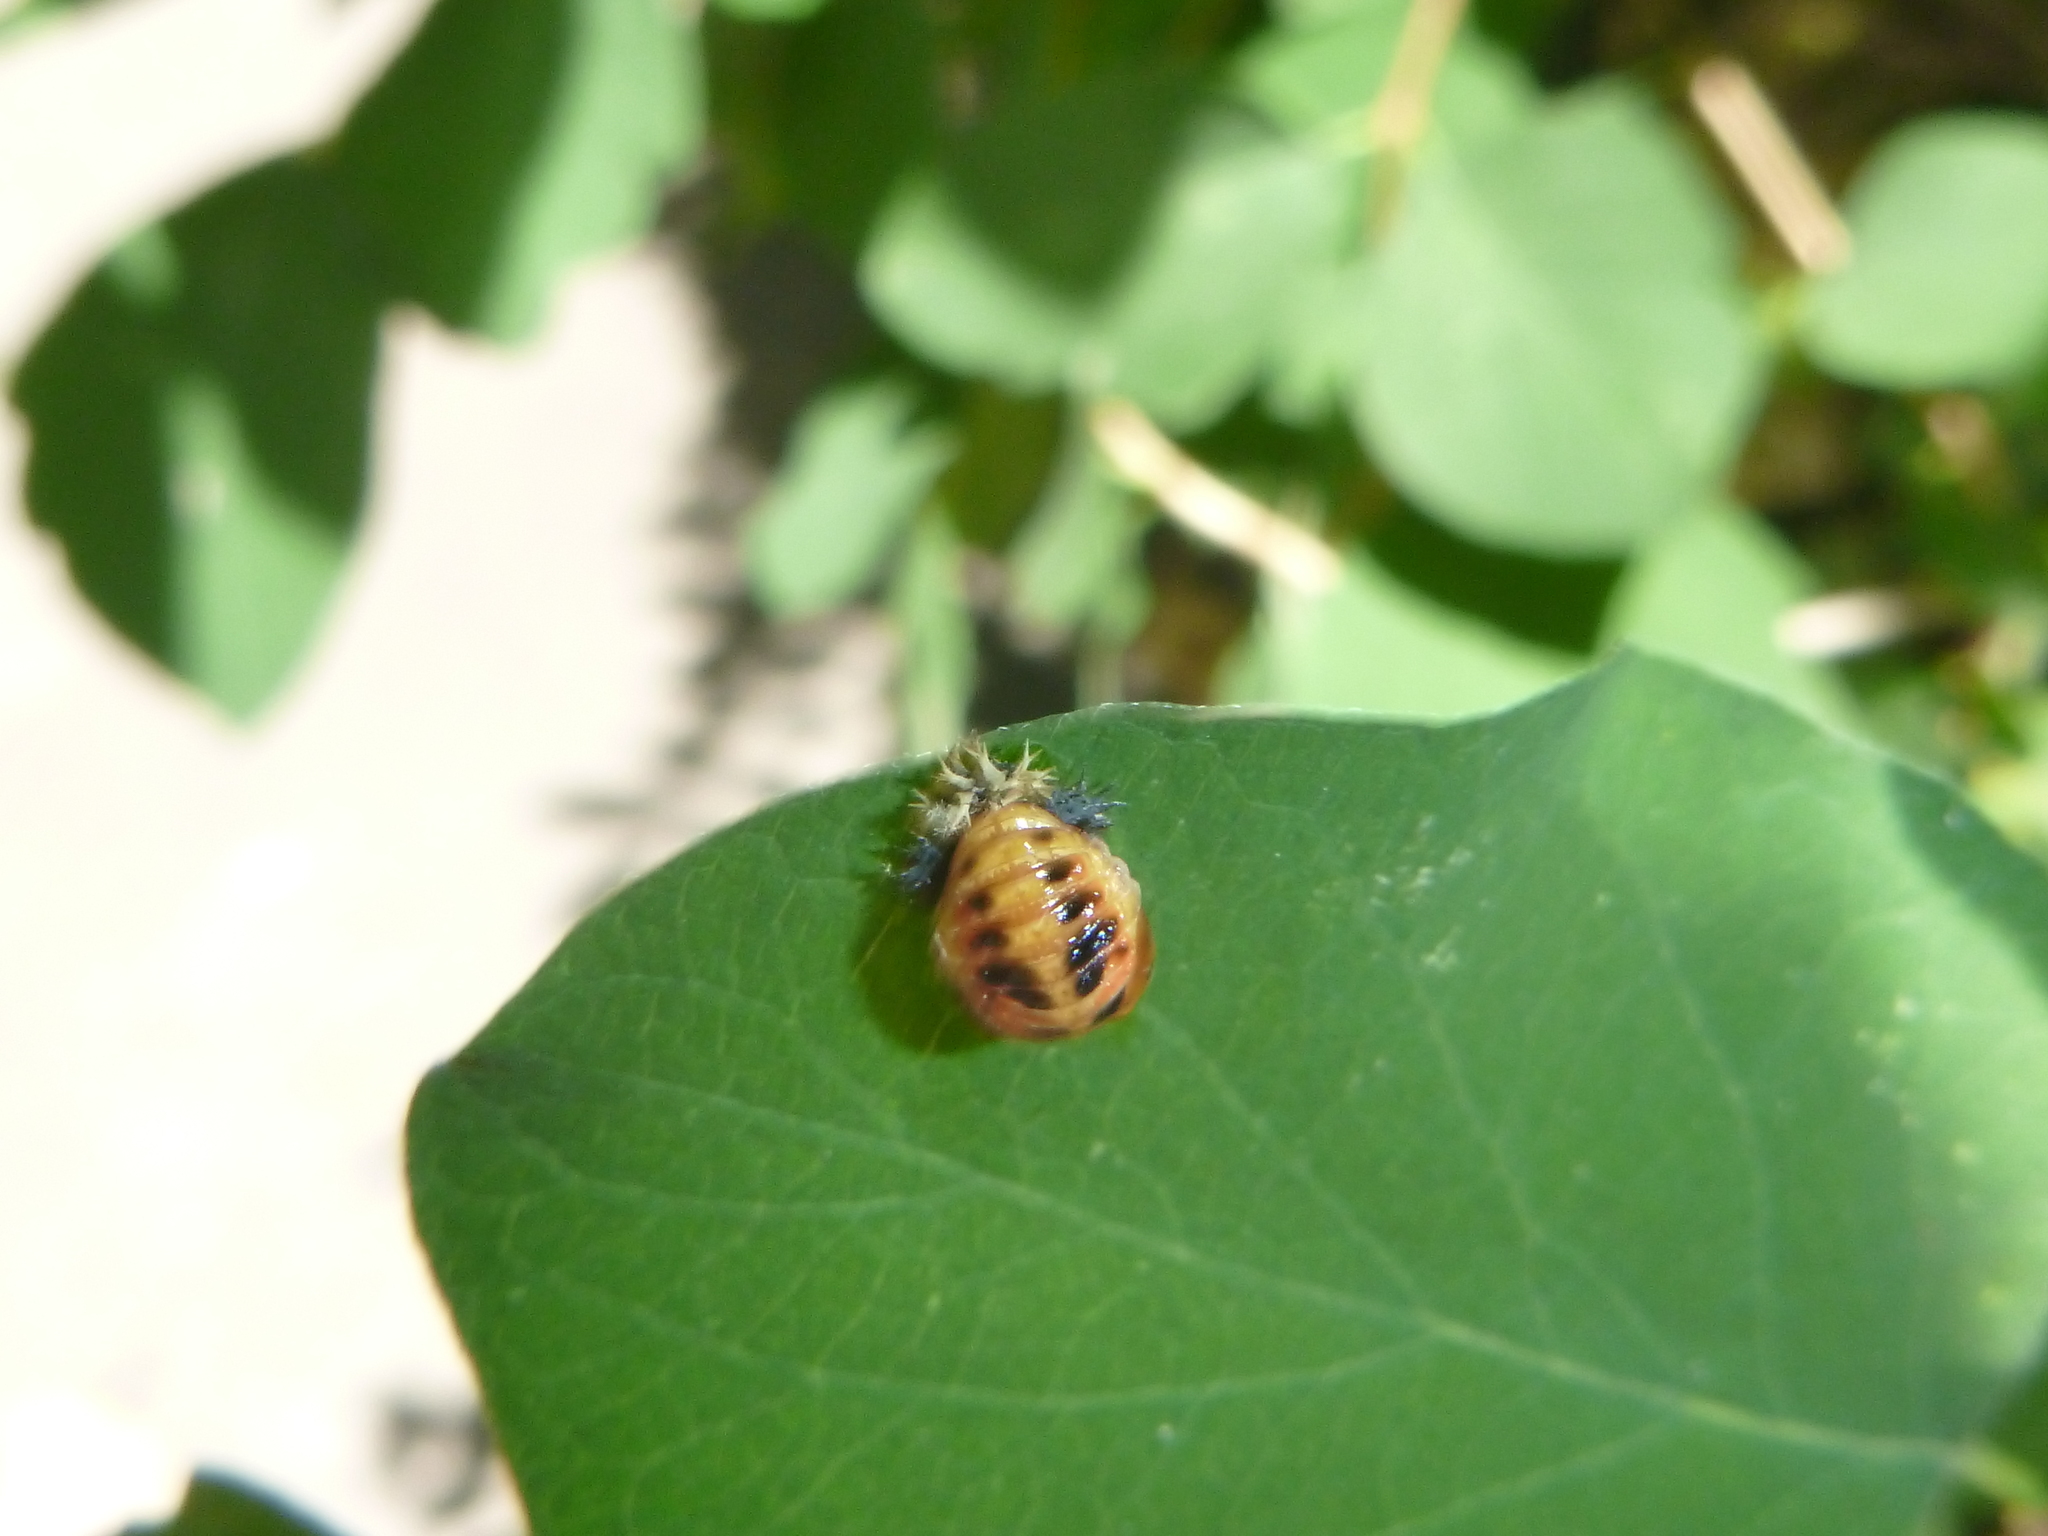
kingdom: Animalia
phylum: Arthropoda
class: Insecta
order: Coleoptera
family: Coccinellidae
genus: Harmonia
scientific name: Harmonia axyridis
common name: Harlequin ladybird
